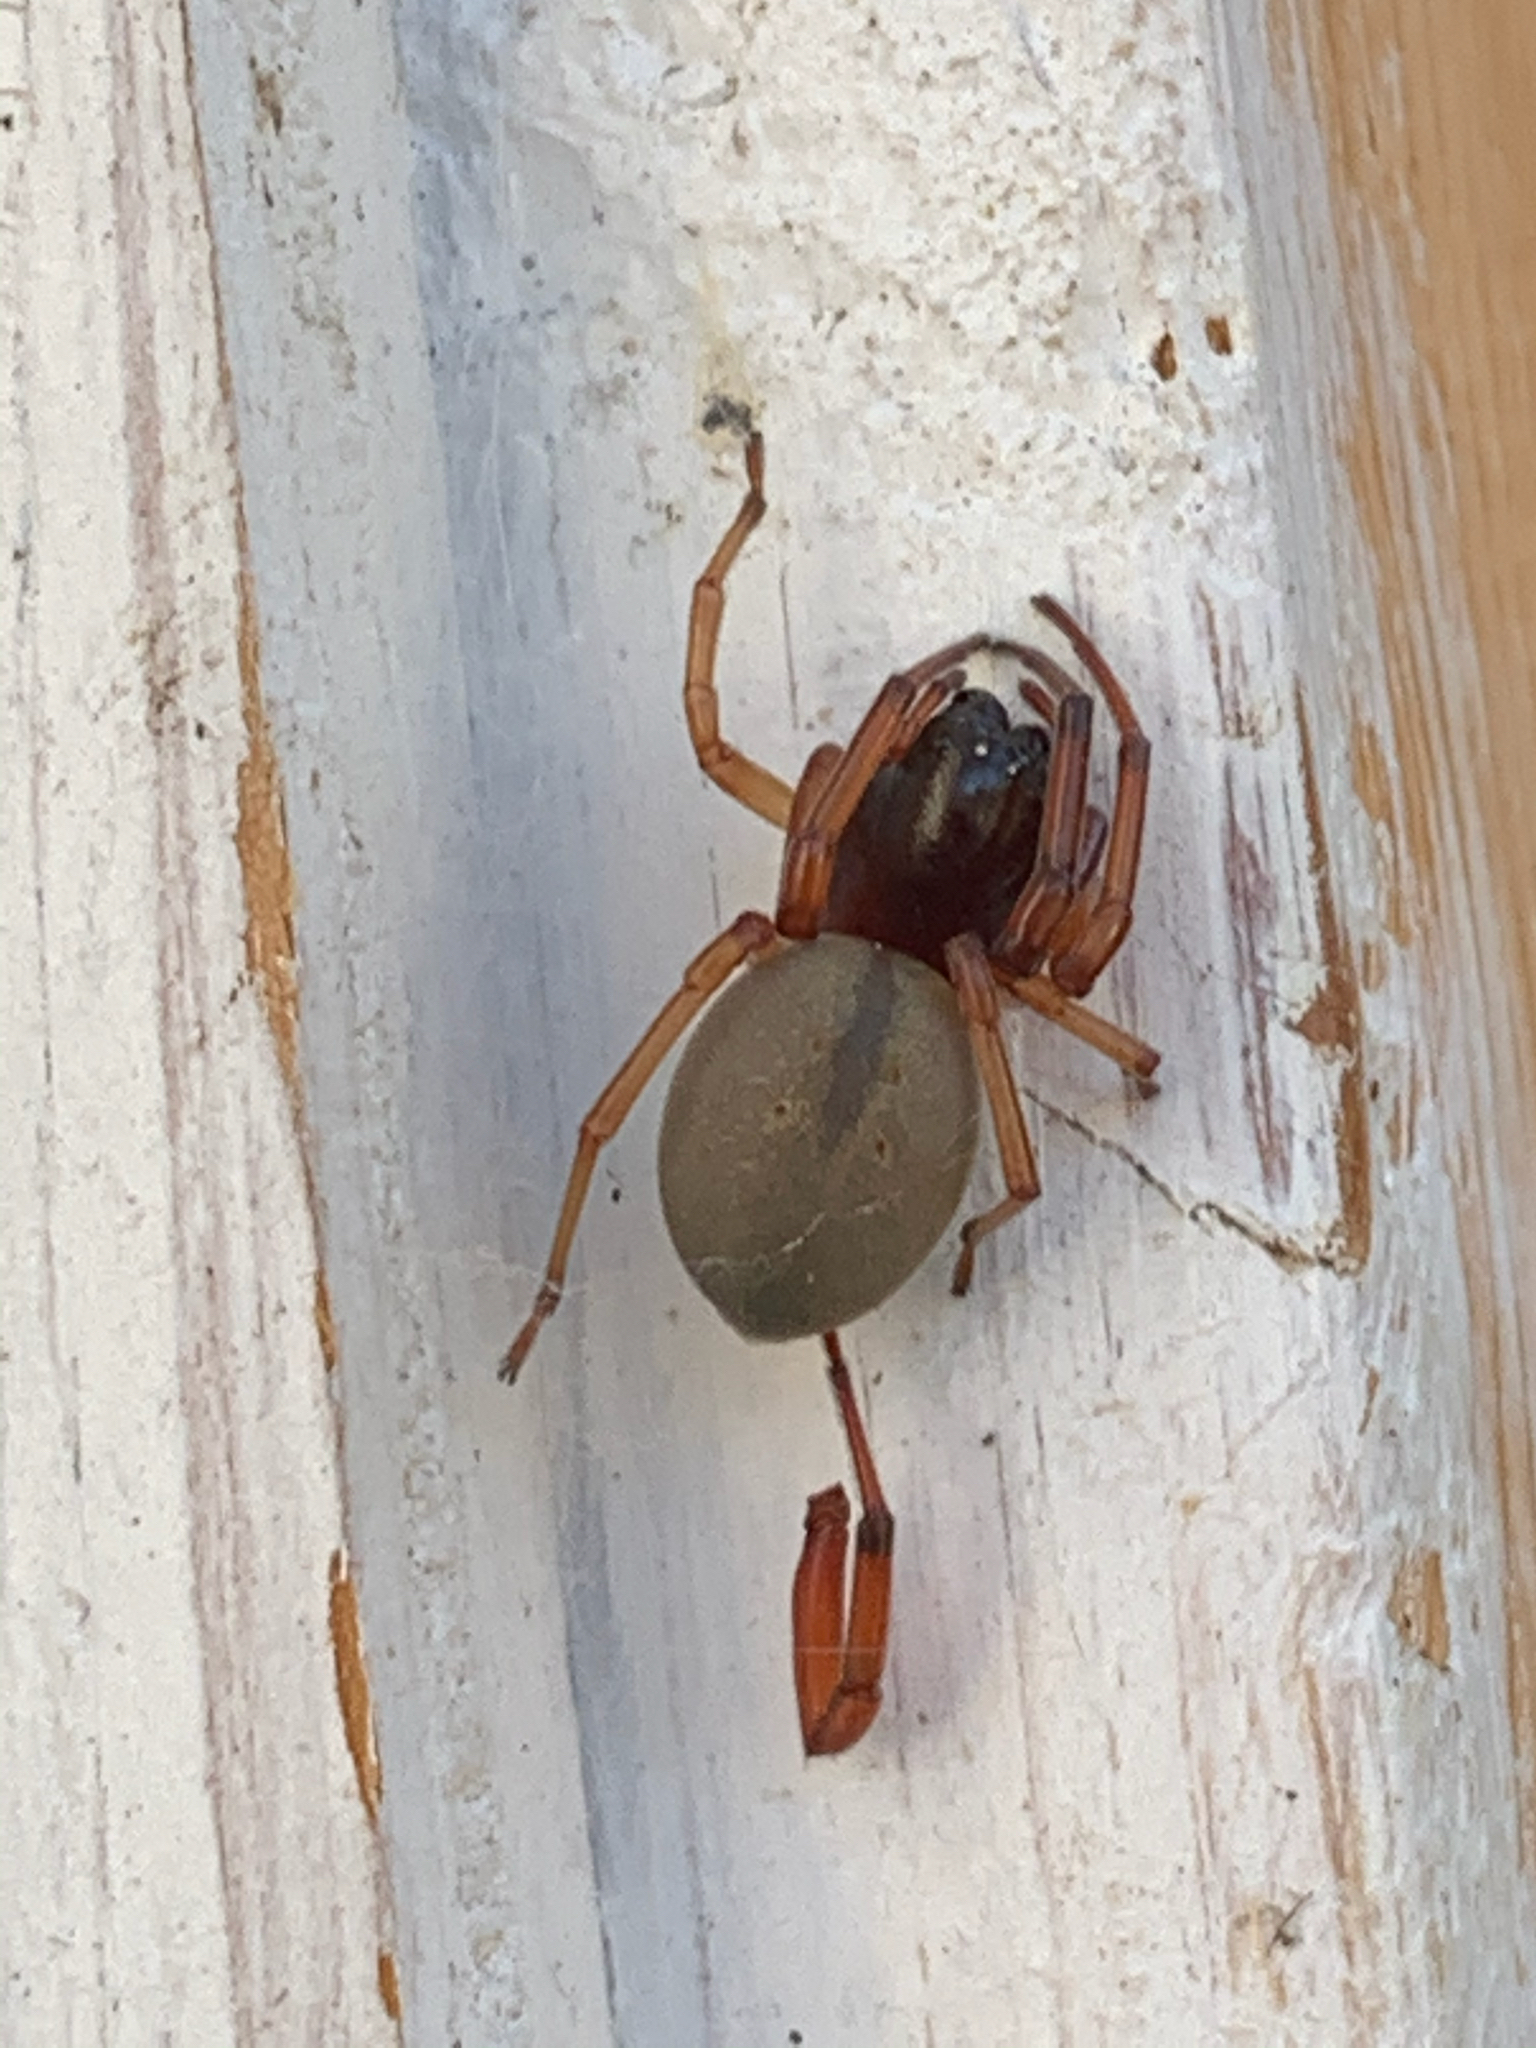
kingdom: Animalia
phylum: Arthropoda
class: Arachnida
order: Araneae
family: Trachelidae
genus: Trachelas
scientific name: Trachelas tranquillus
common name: Broad-faced sac spider
